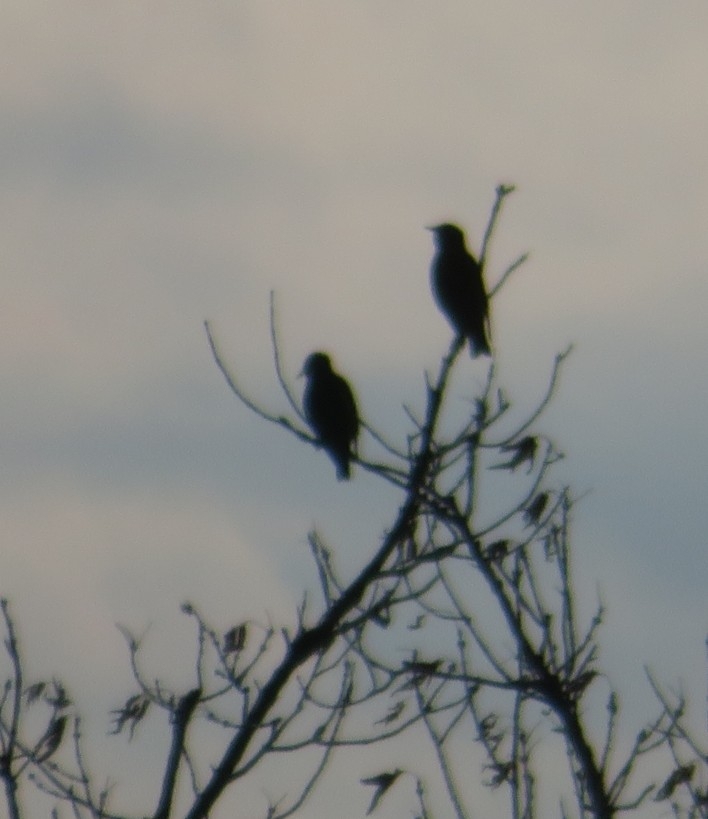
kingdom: Animalia
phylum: Chordata
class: Aves
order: Passeriformes
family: Sturnidae
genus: Sturnus
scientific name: Sturnus vulgaris
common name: Common starling
